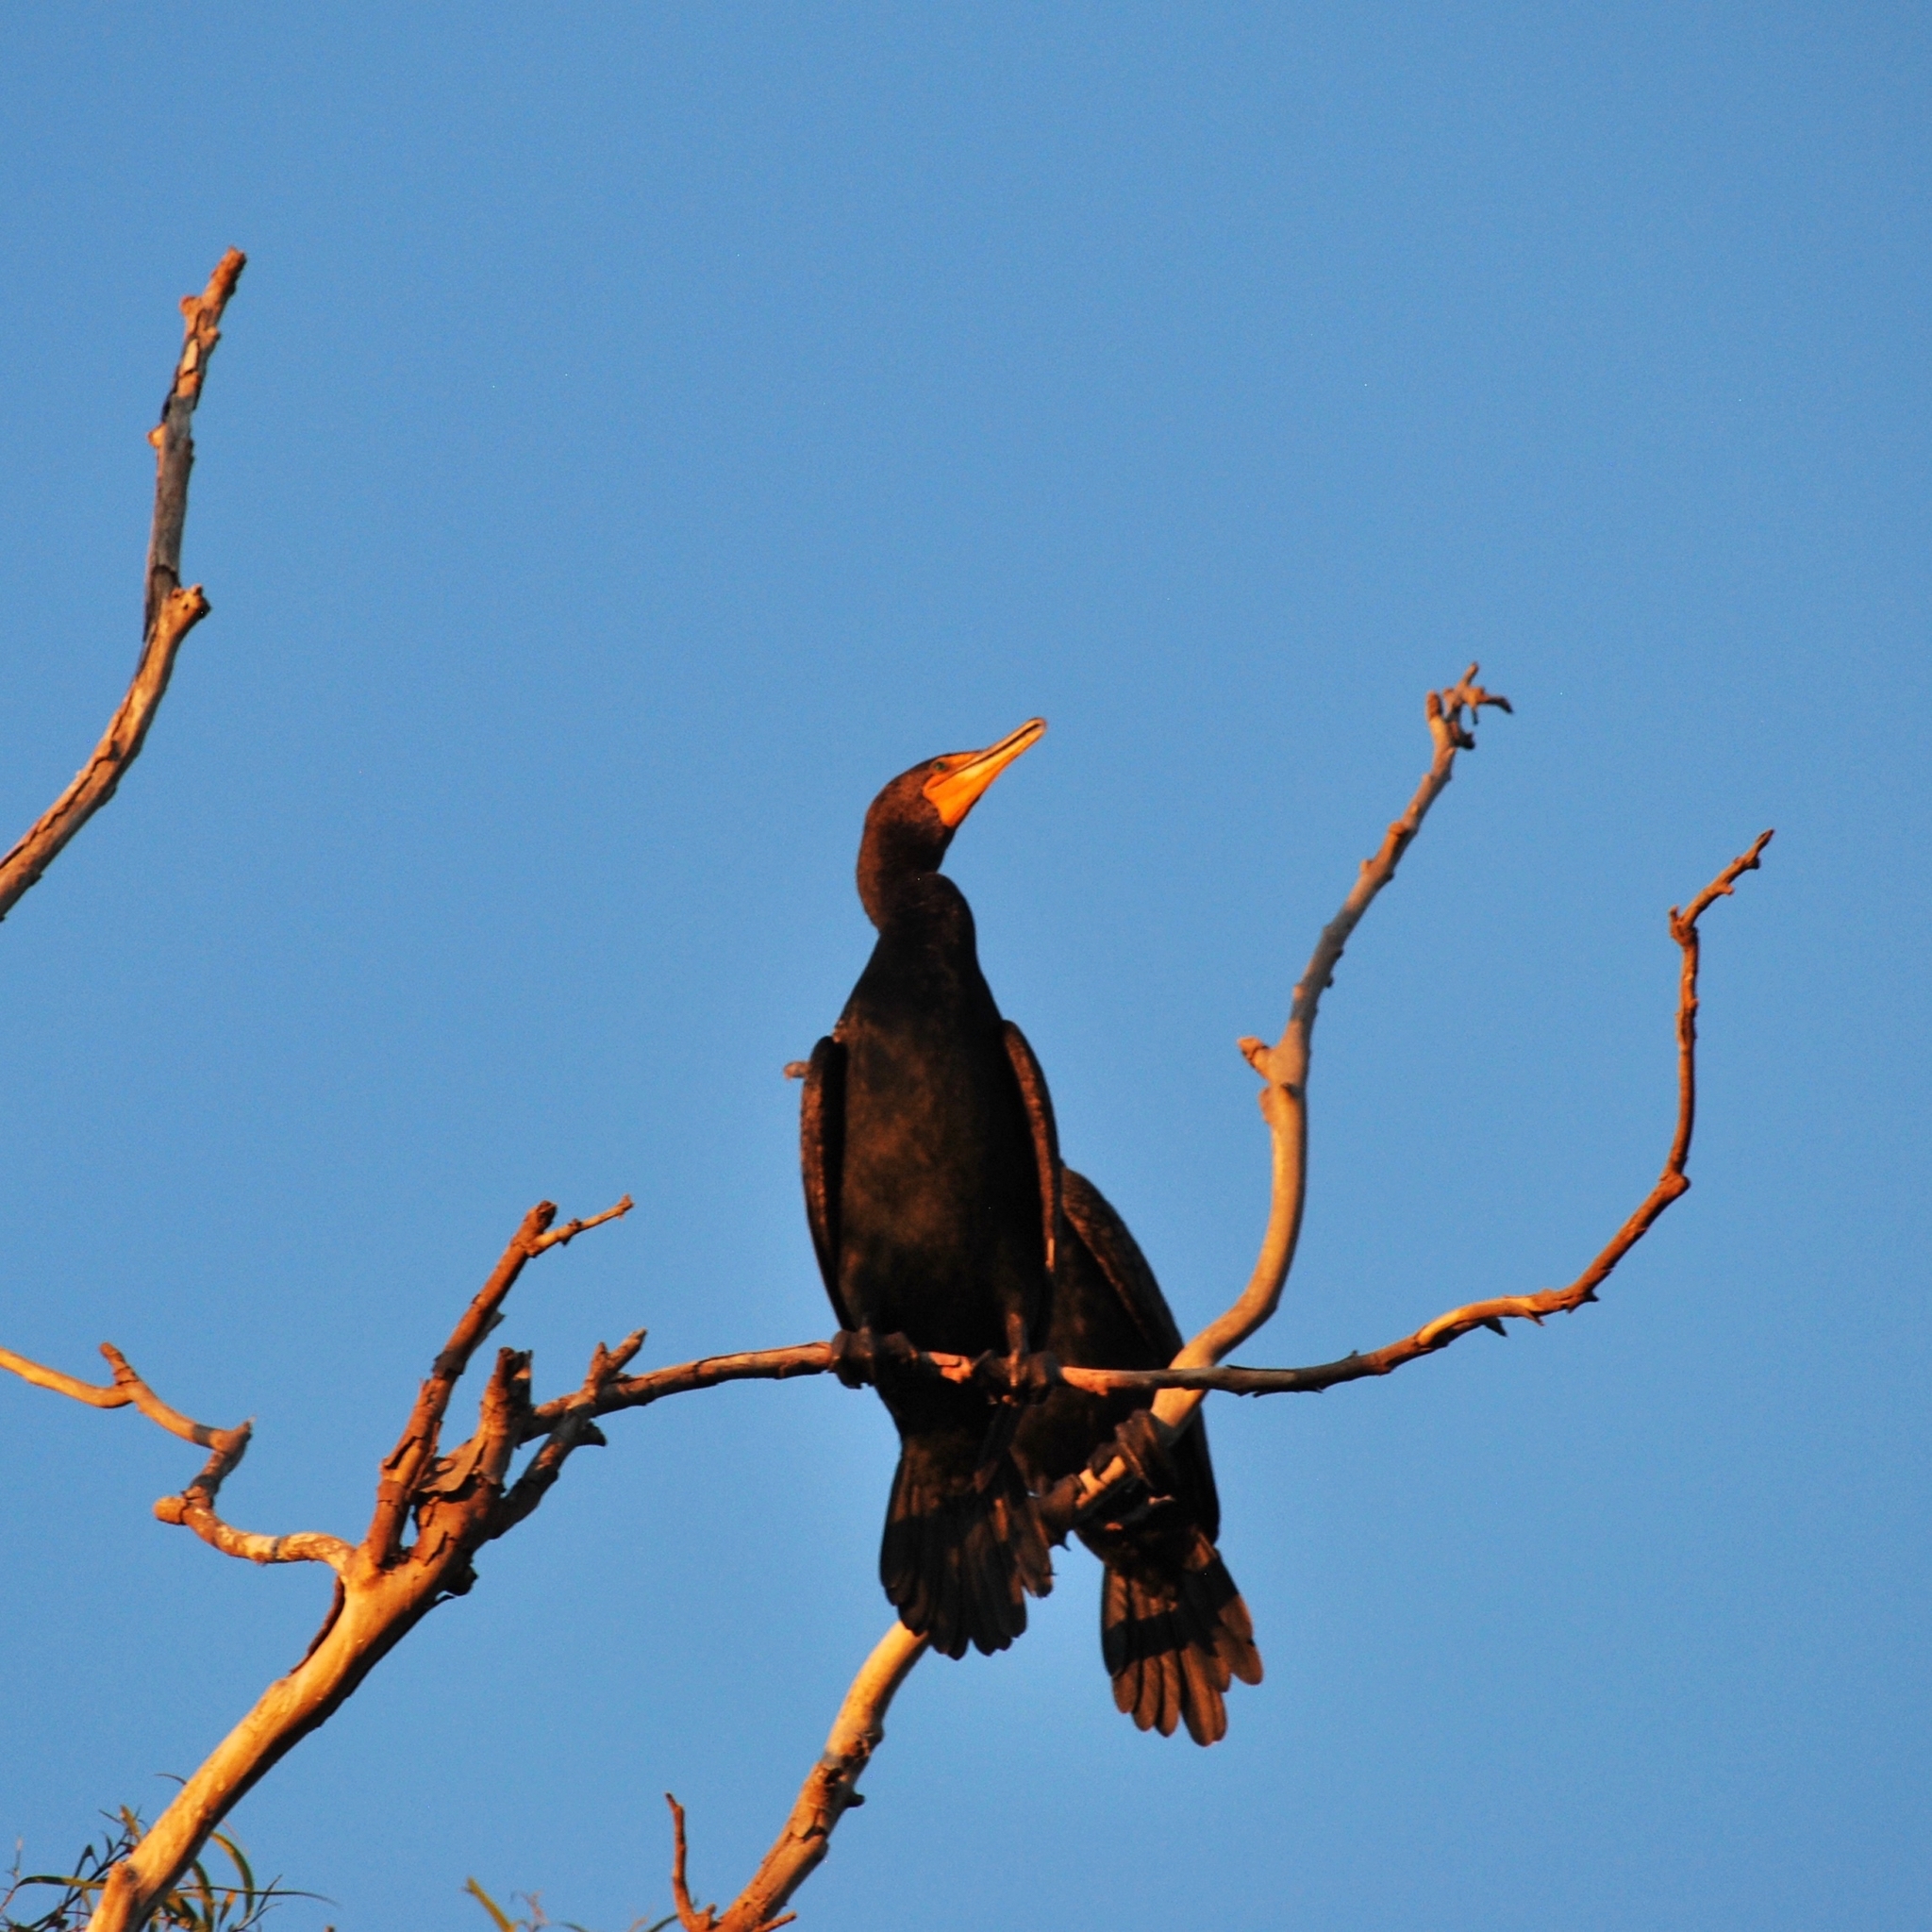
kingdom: Animalia
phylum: Chordata
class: Aves
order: Suliformes
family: Phalacrocoracidae
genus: Phalacrocorax
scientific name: Phalacrocorax auritus
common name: Double-crested cormorant
